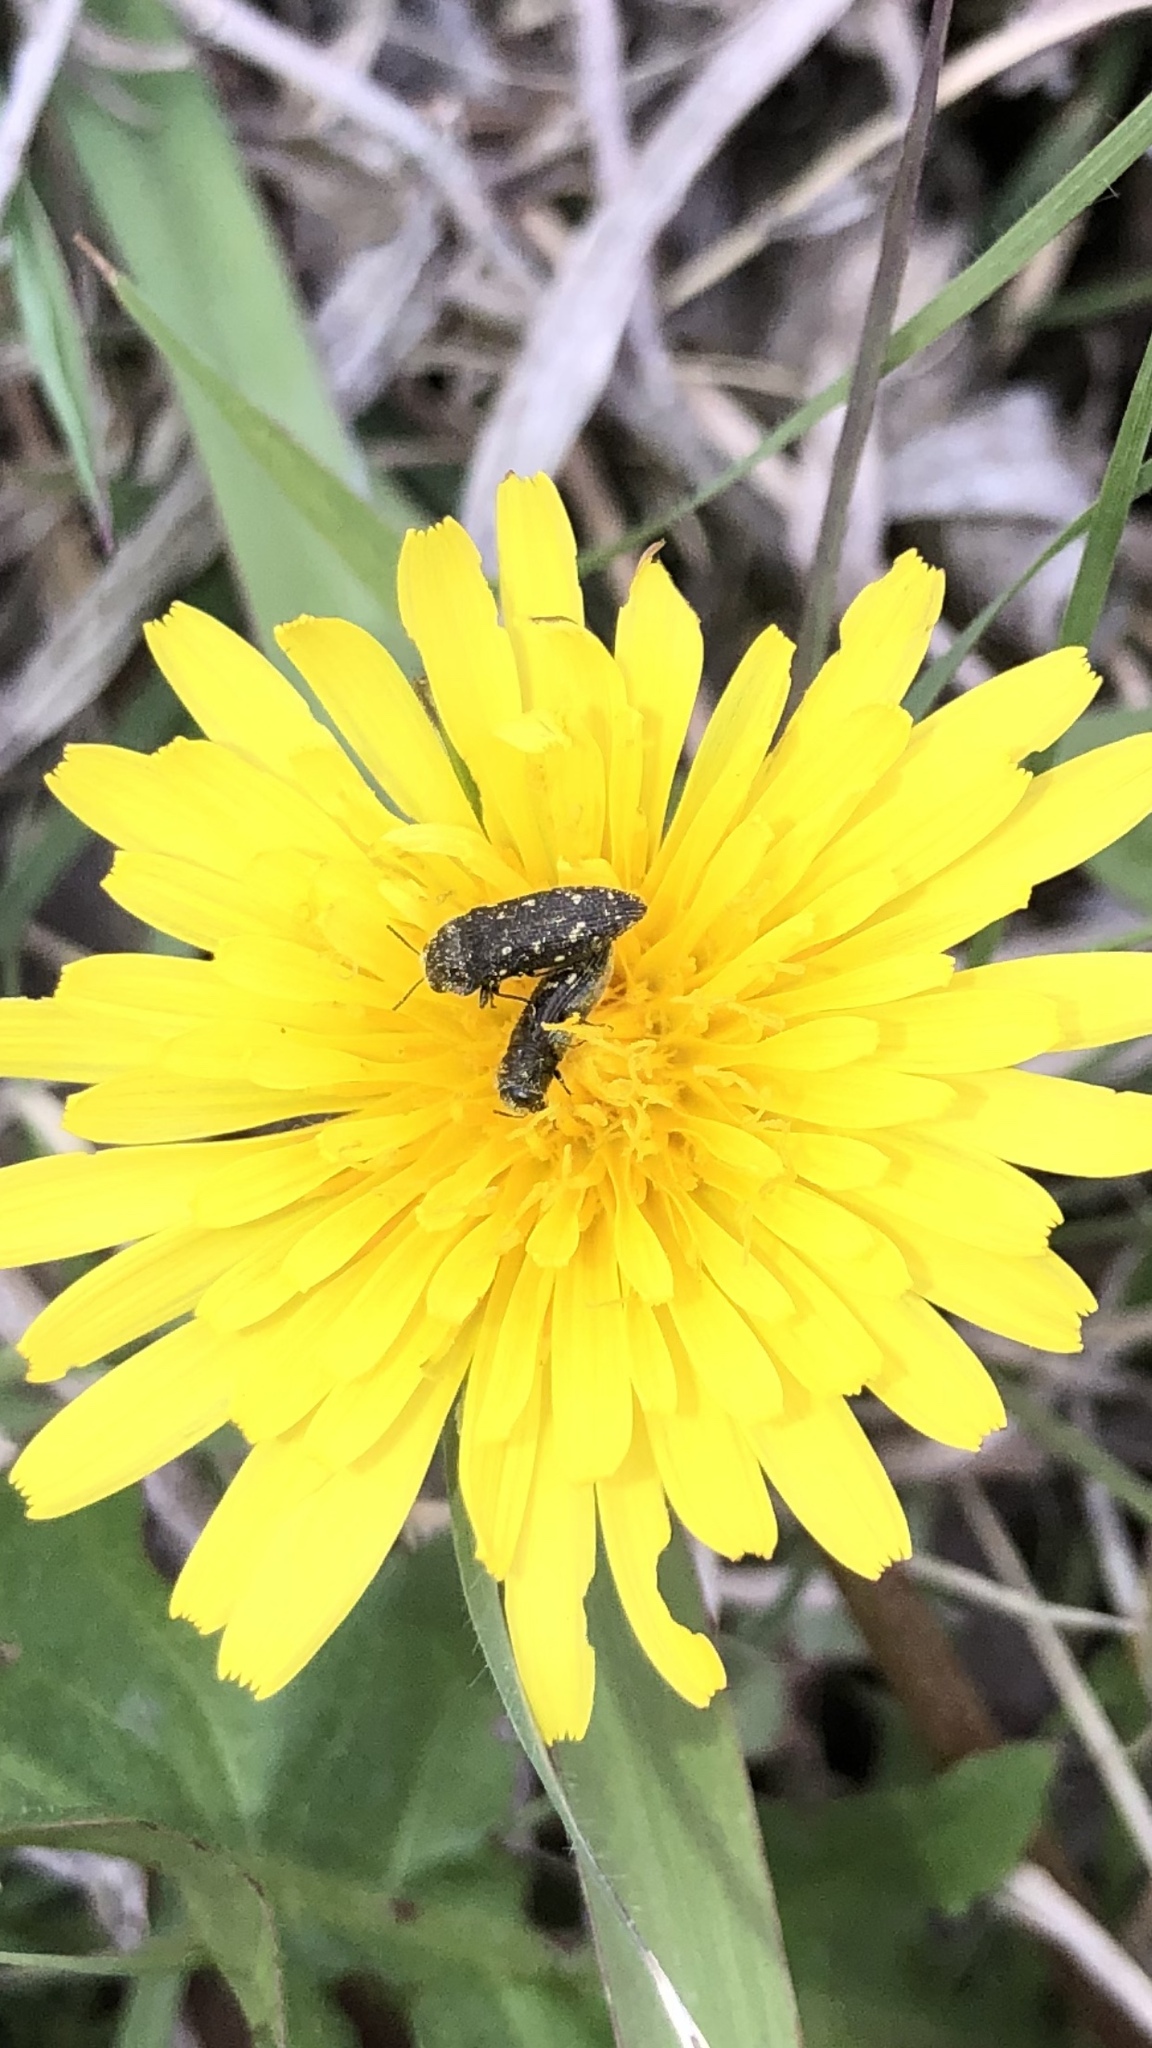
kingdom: Animalia
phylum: Arthropoda
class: Insecta
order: Coleoptera
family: Buprestidae
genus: Acmaeodera
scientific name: Acmaeodera tubulus
